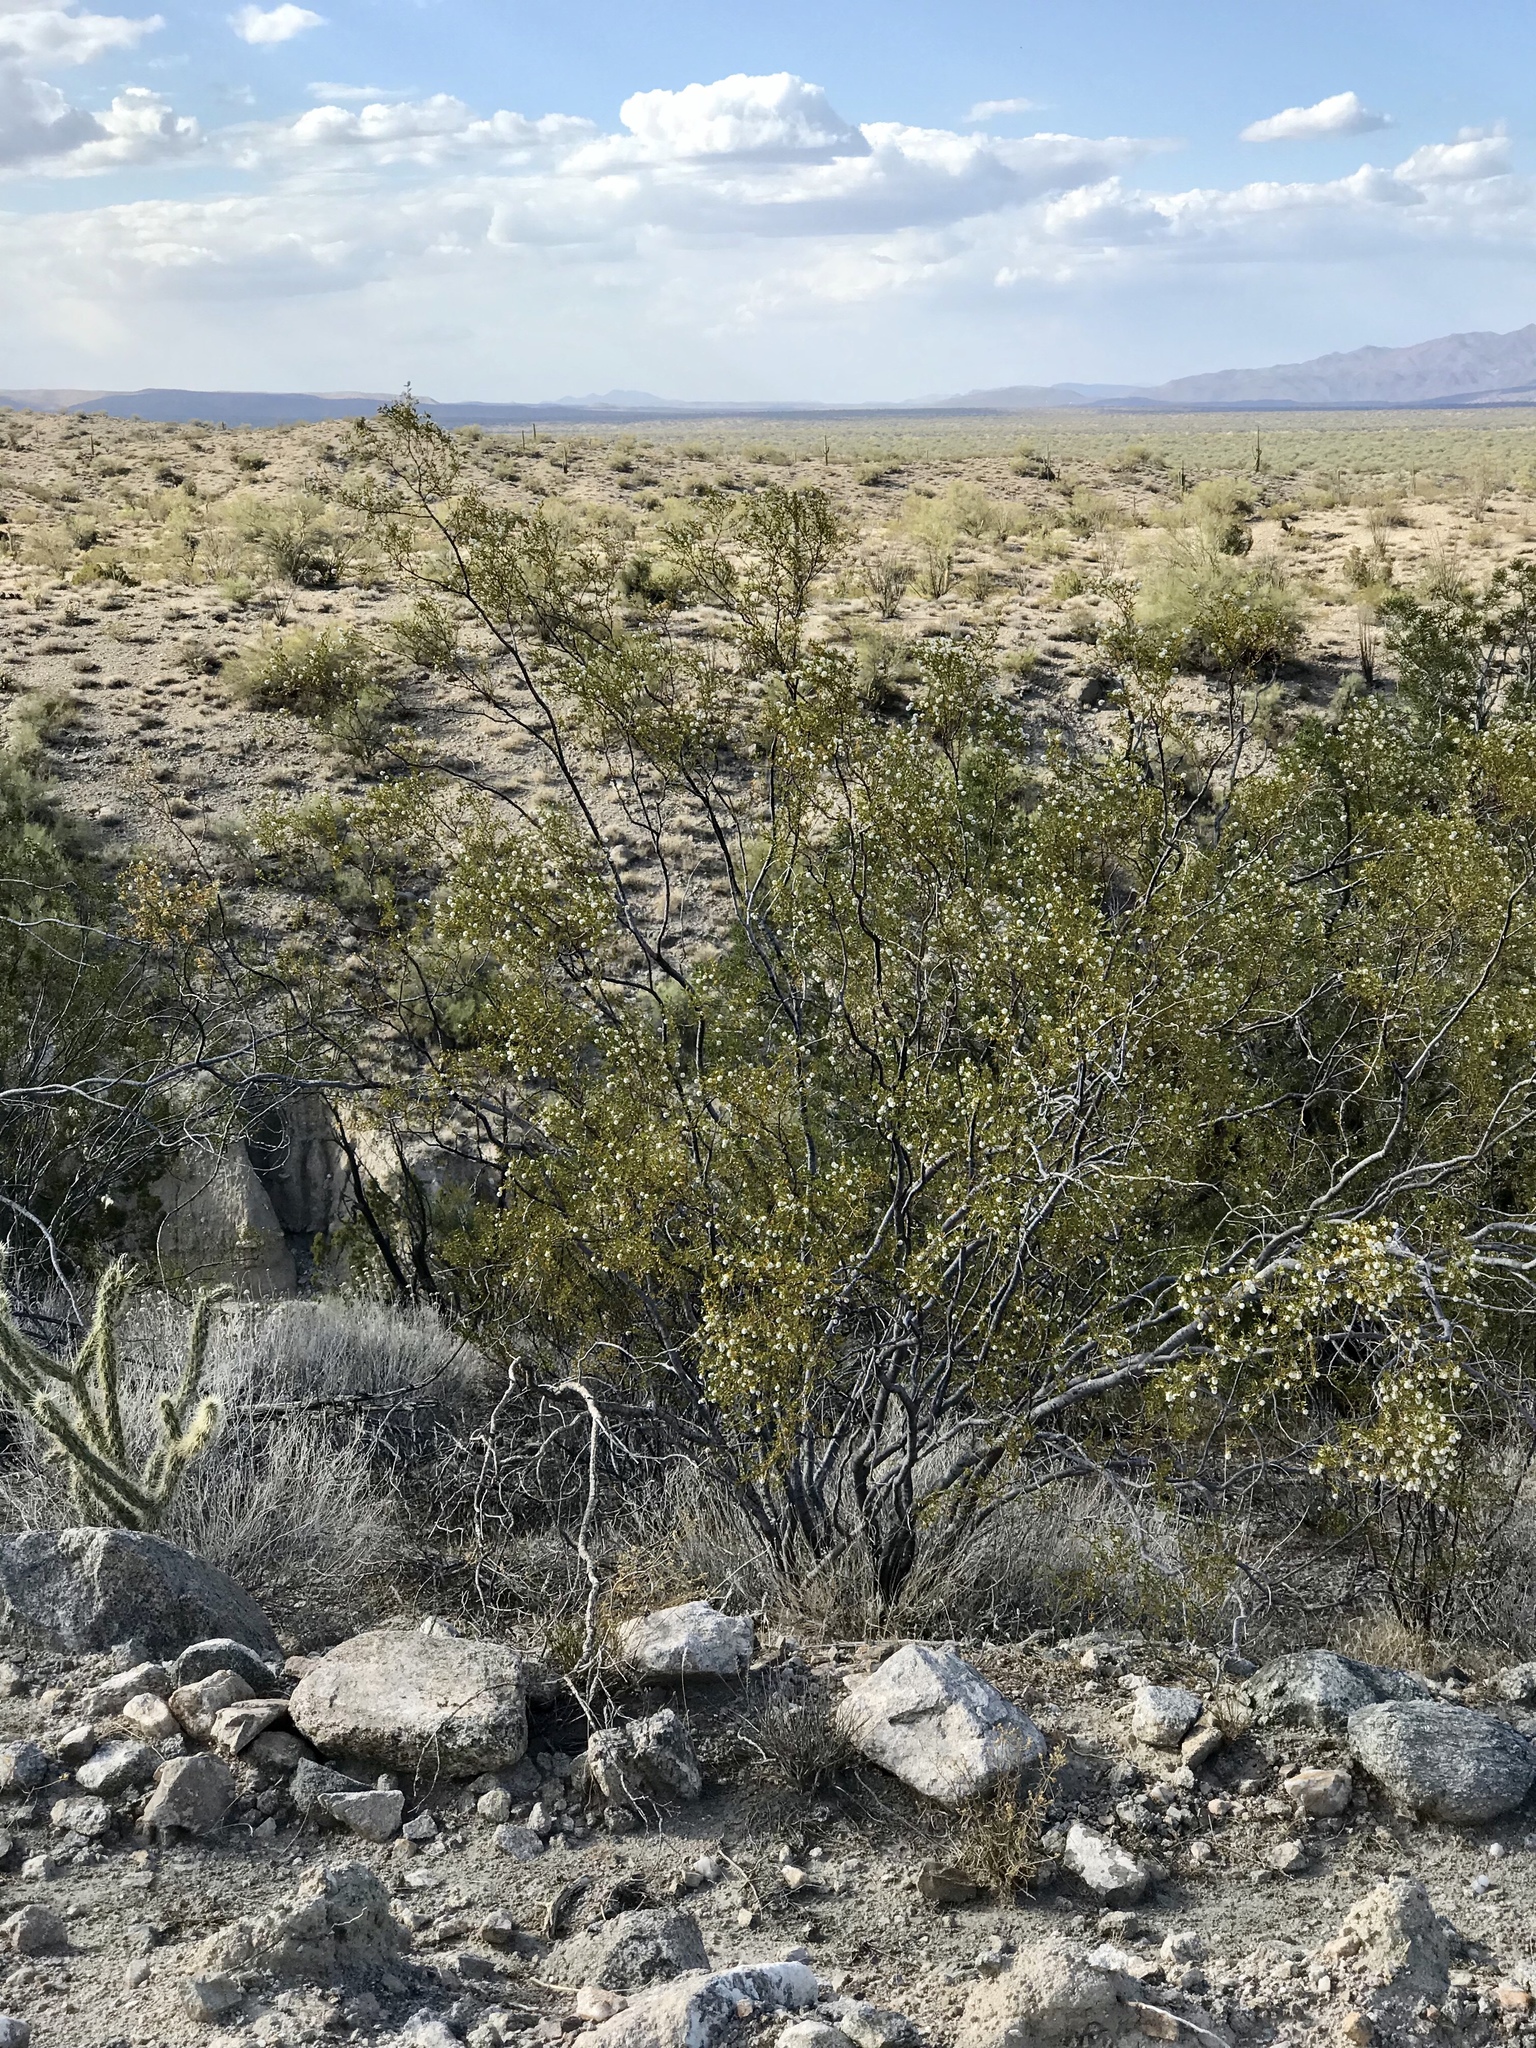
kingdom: Plantae
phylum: Tracheophyta
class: Magnoliopsida
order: Zygophyllales
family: Zygophyllaceae
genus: Larrea
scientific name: Larrea tridentata
